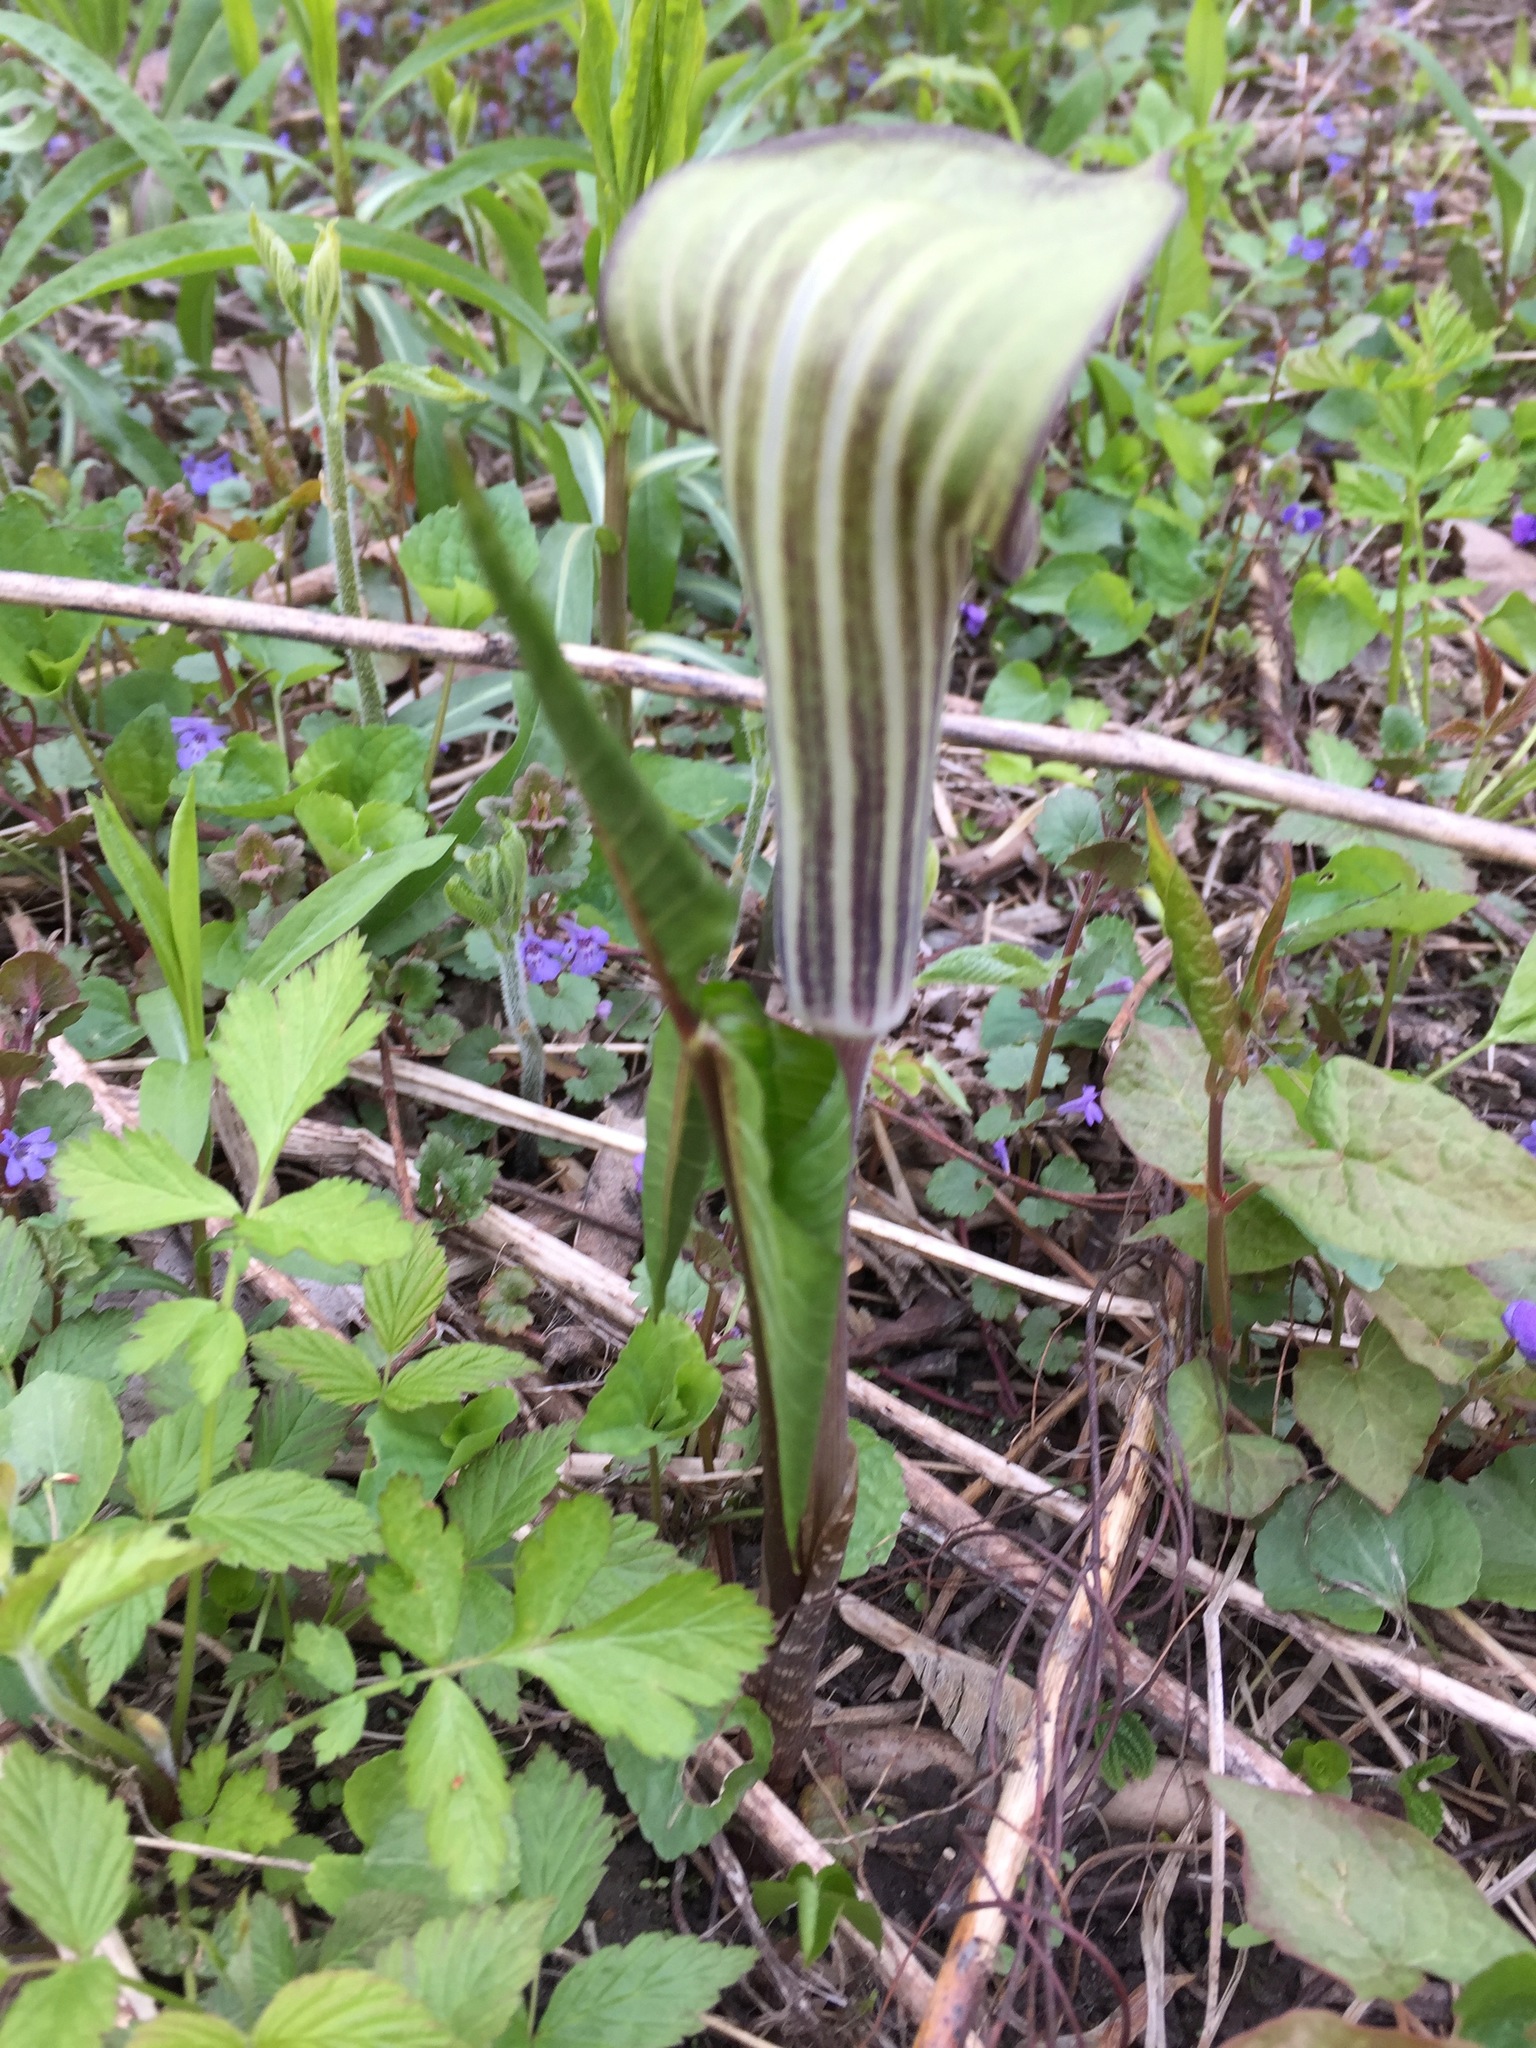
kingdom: Plantae
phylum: Tracheophyta
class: Liliopsida
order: Alismatales
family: Araceae
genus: Arisaema
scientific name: Arisaema triphyllum
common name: Jack-in-the-pulpit
